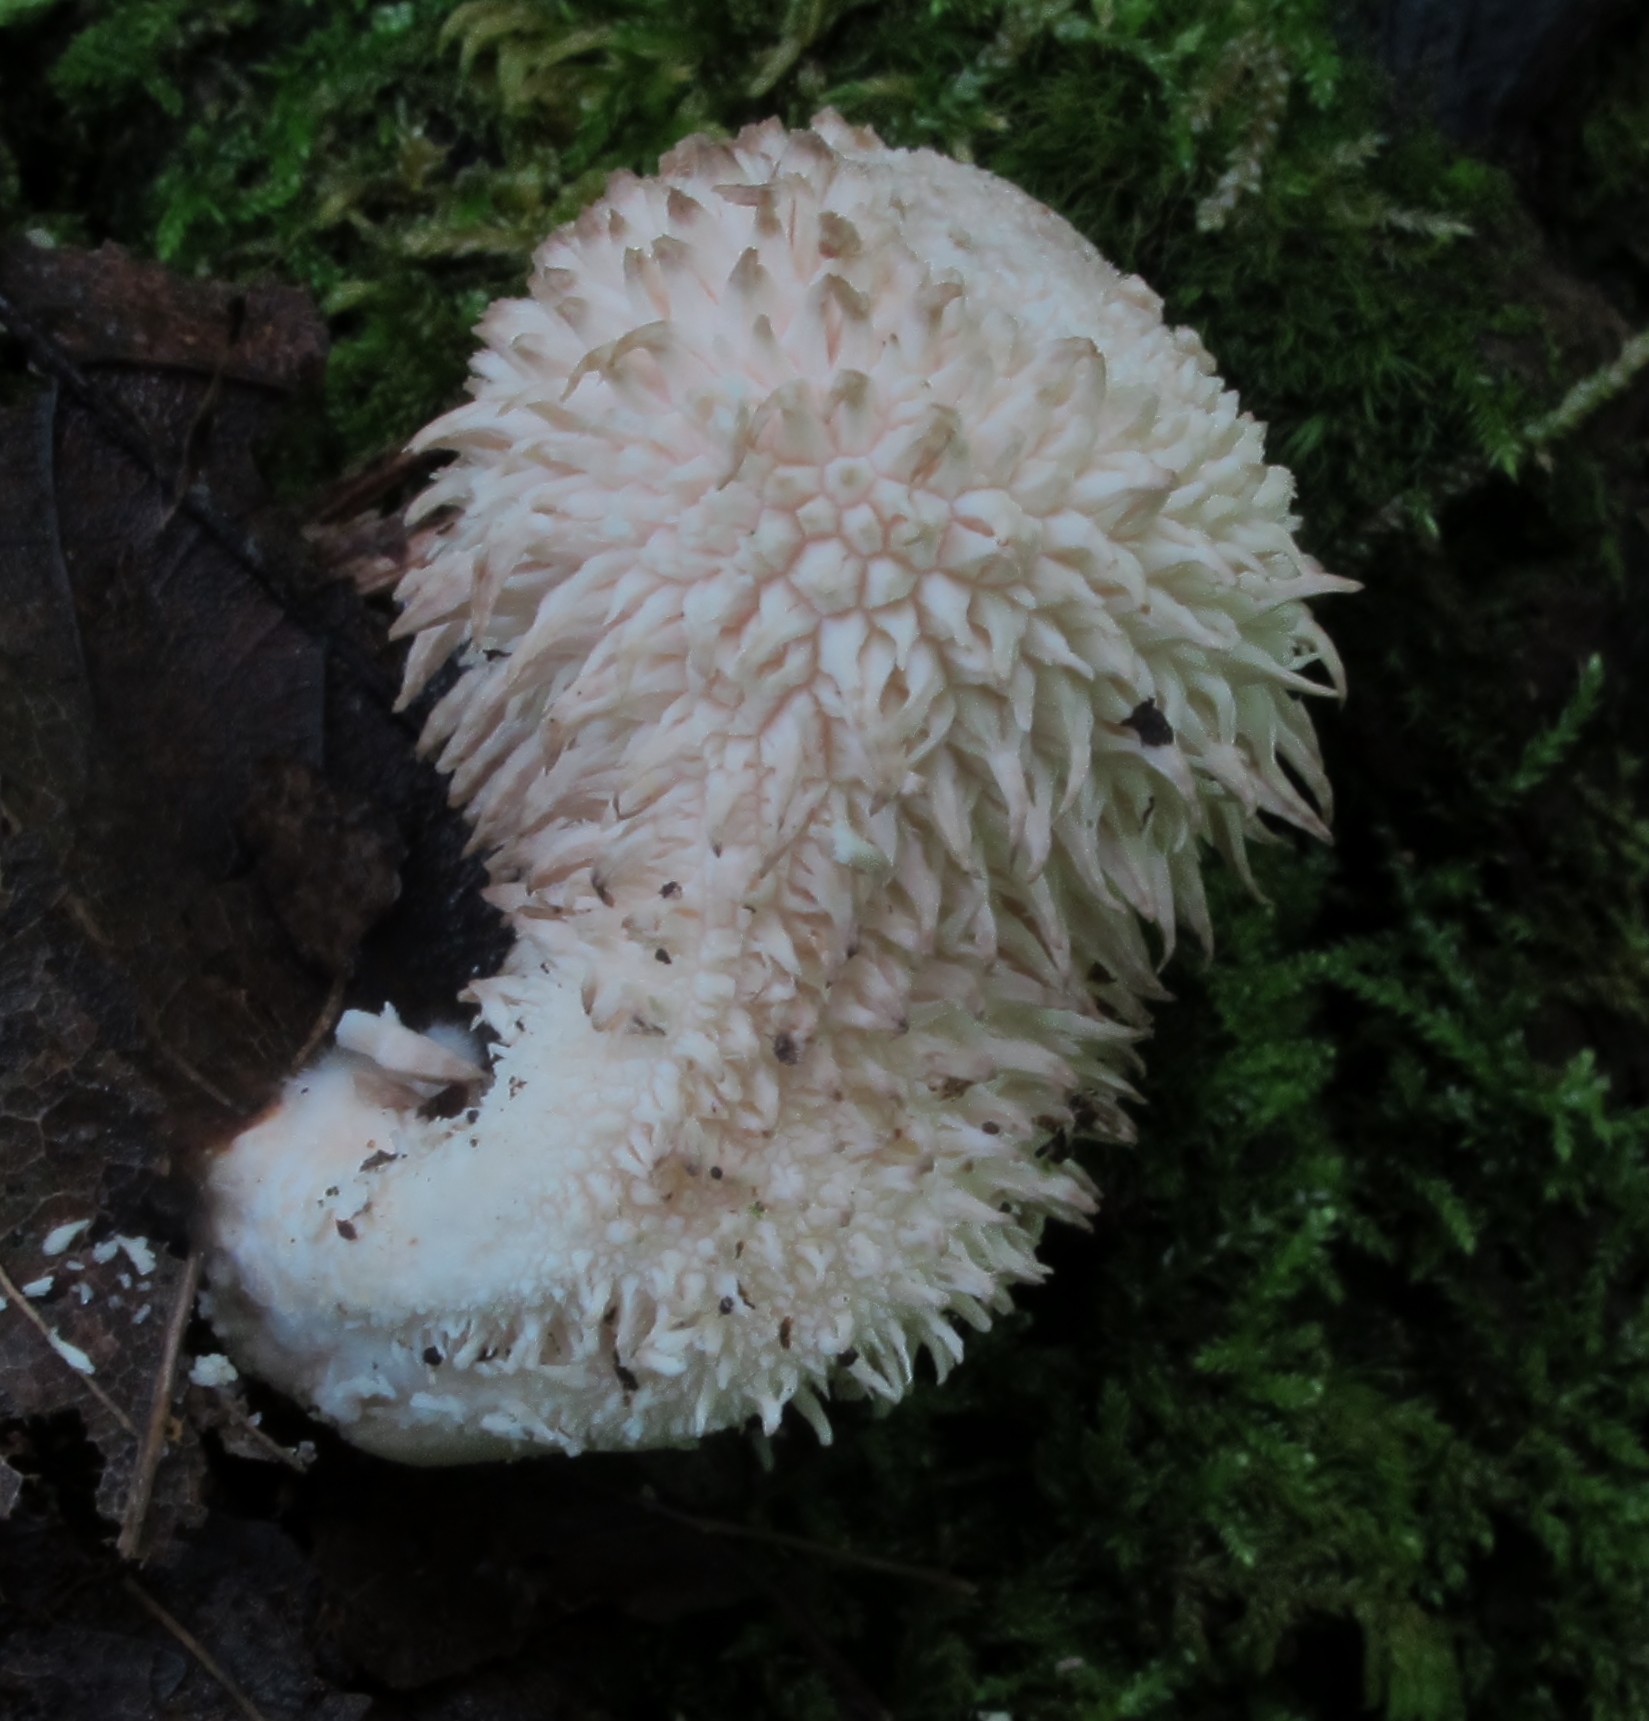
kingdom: Fungi
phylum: Basidiomycota
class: Agaricomycetes
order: Agaricales
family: Lycoperdaceae
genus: Lycoperdon
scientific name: Lycoperdon curtisii
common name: Curtis's puffball
